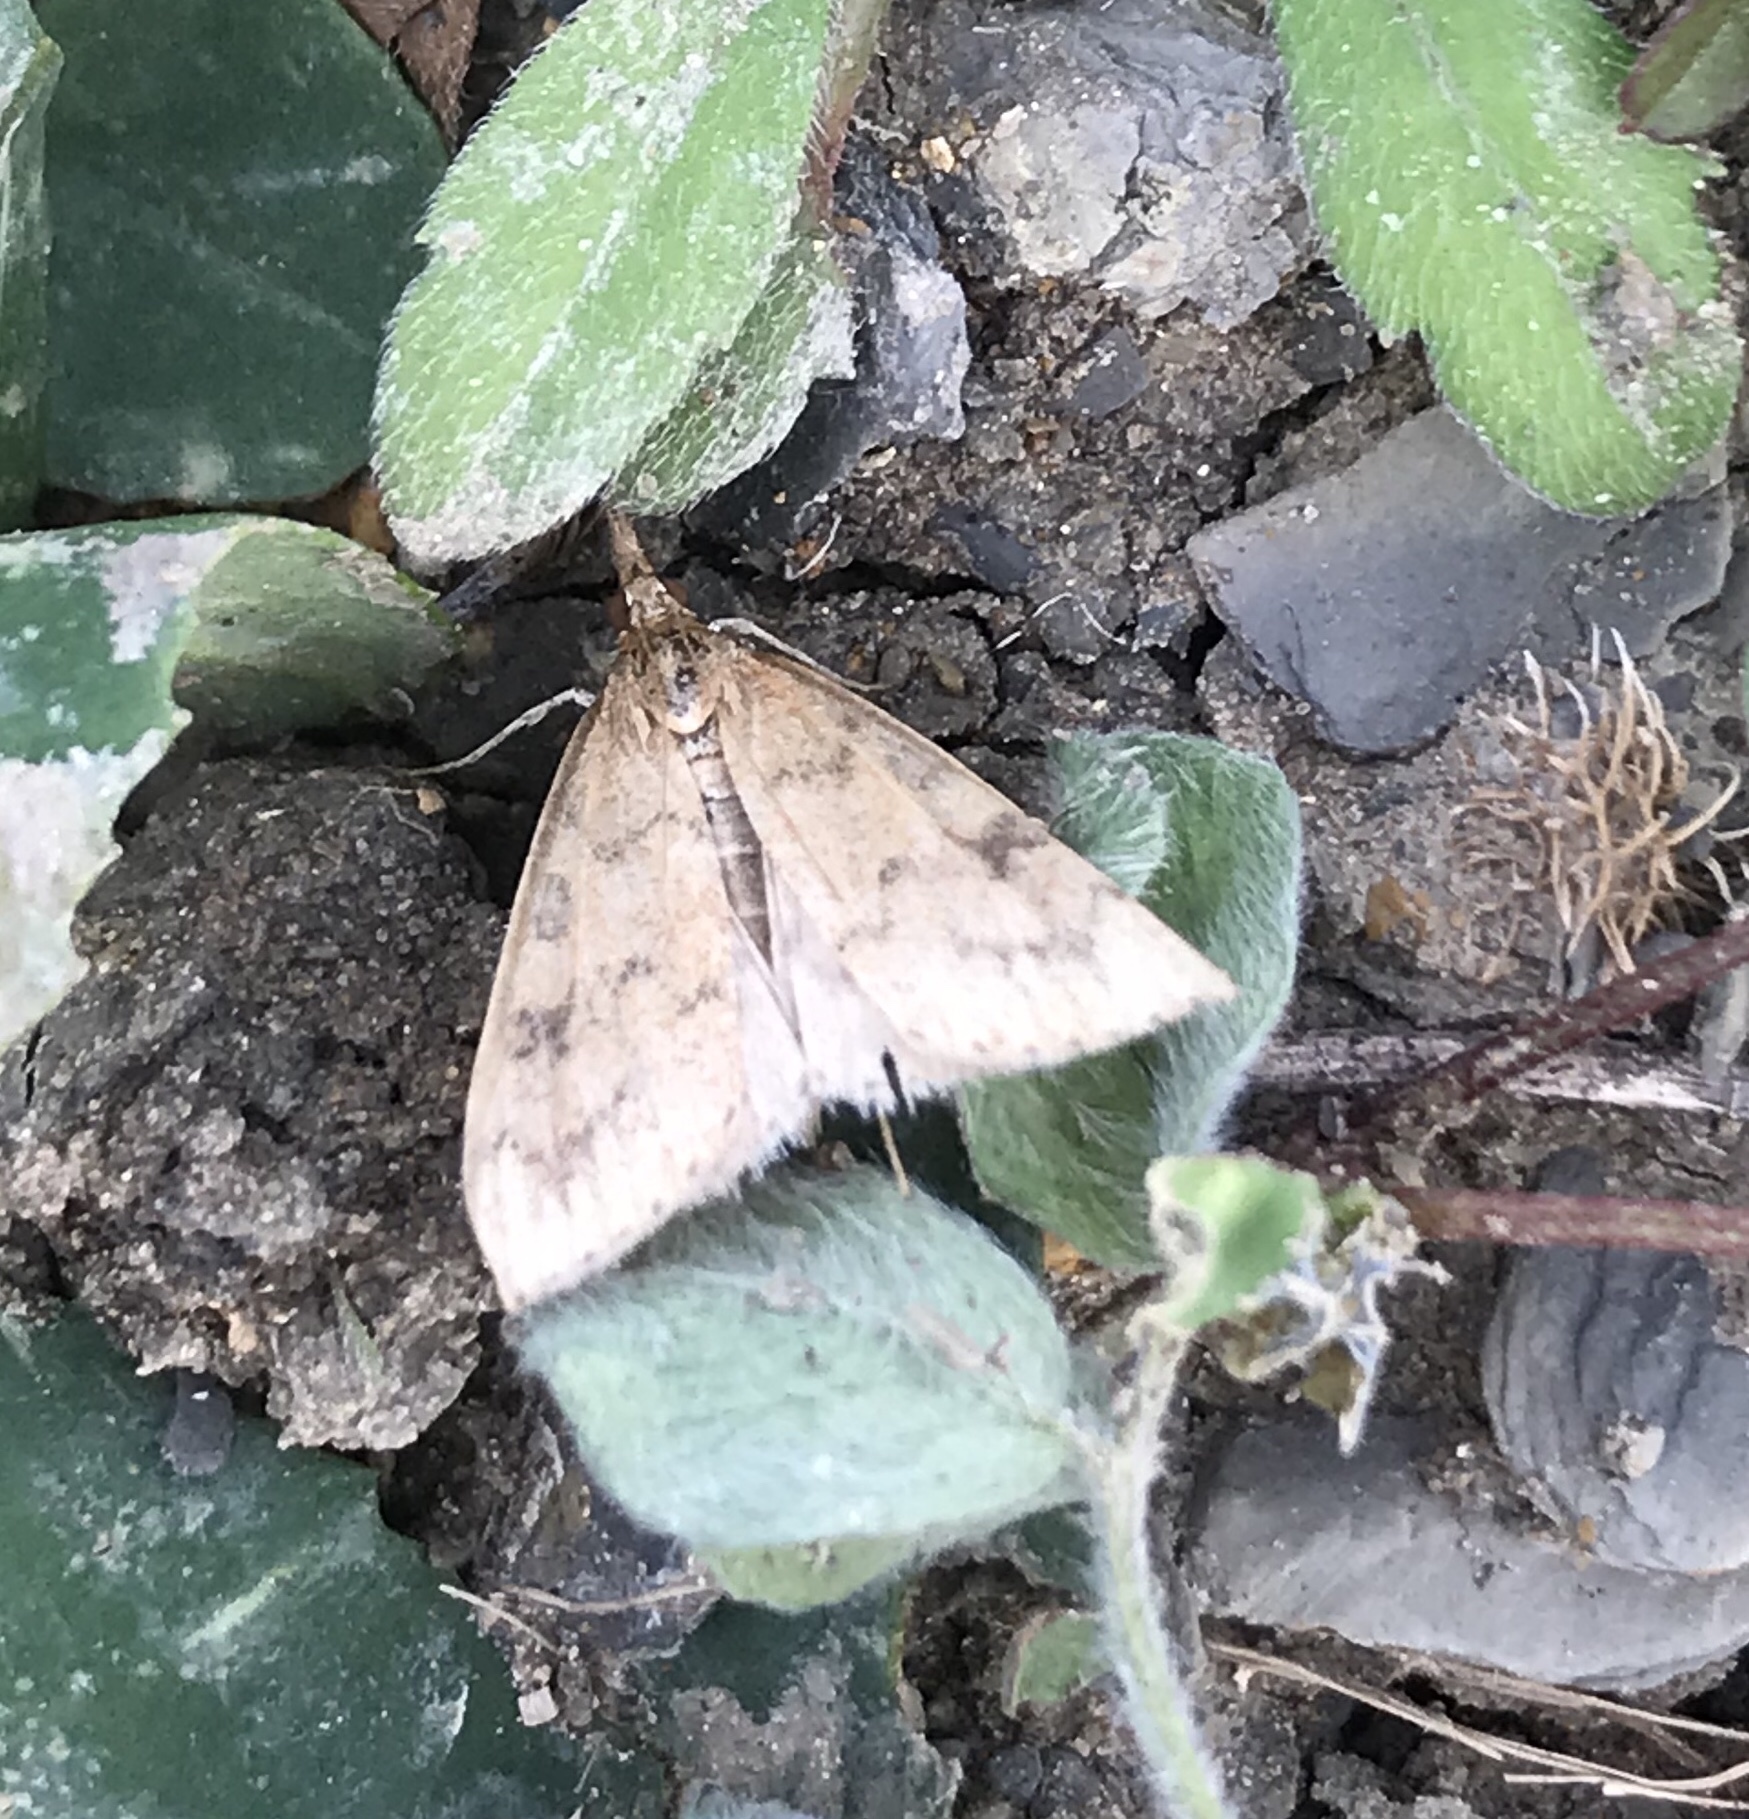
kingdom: Animalia
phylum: Arthropoda
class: Insecta
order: Lepidoptera
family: Crambidae
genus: Udea
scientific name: Udea rubigalis
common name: Celery leaftier moth
